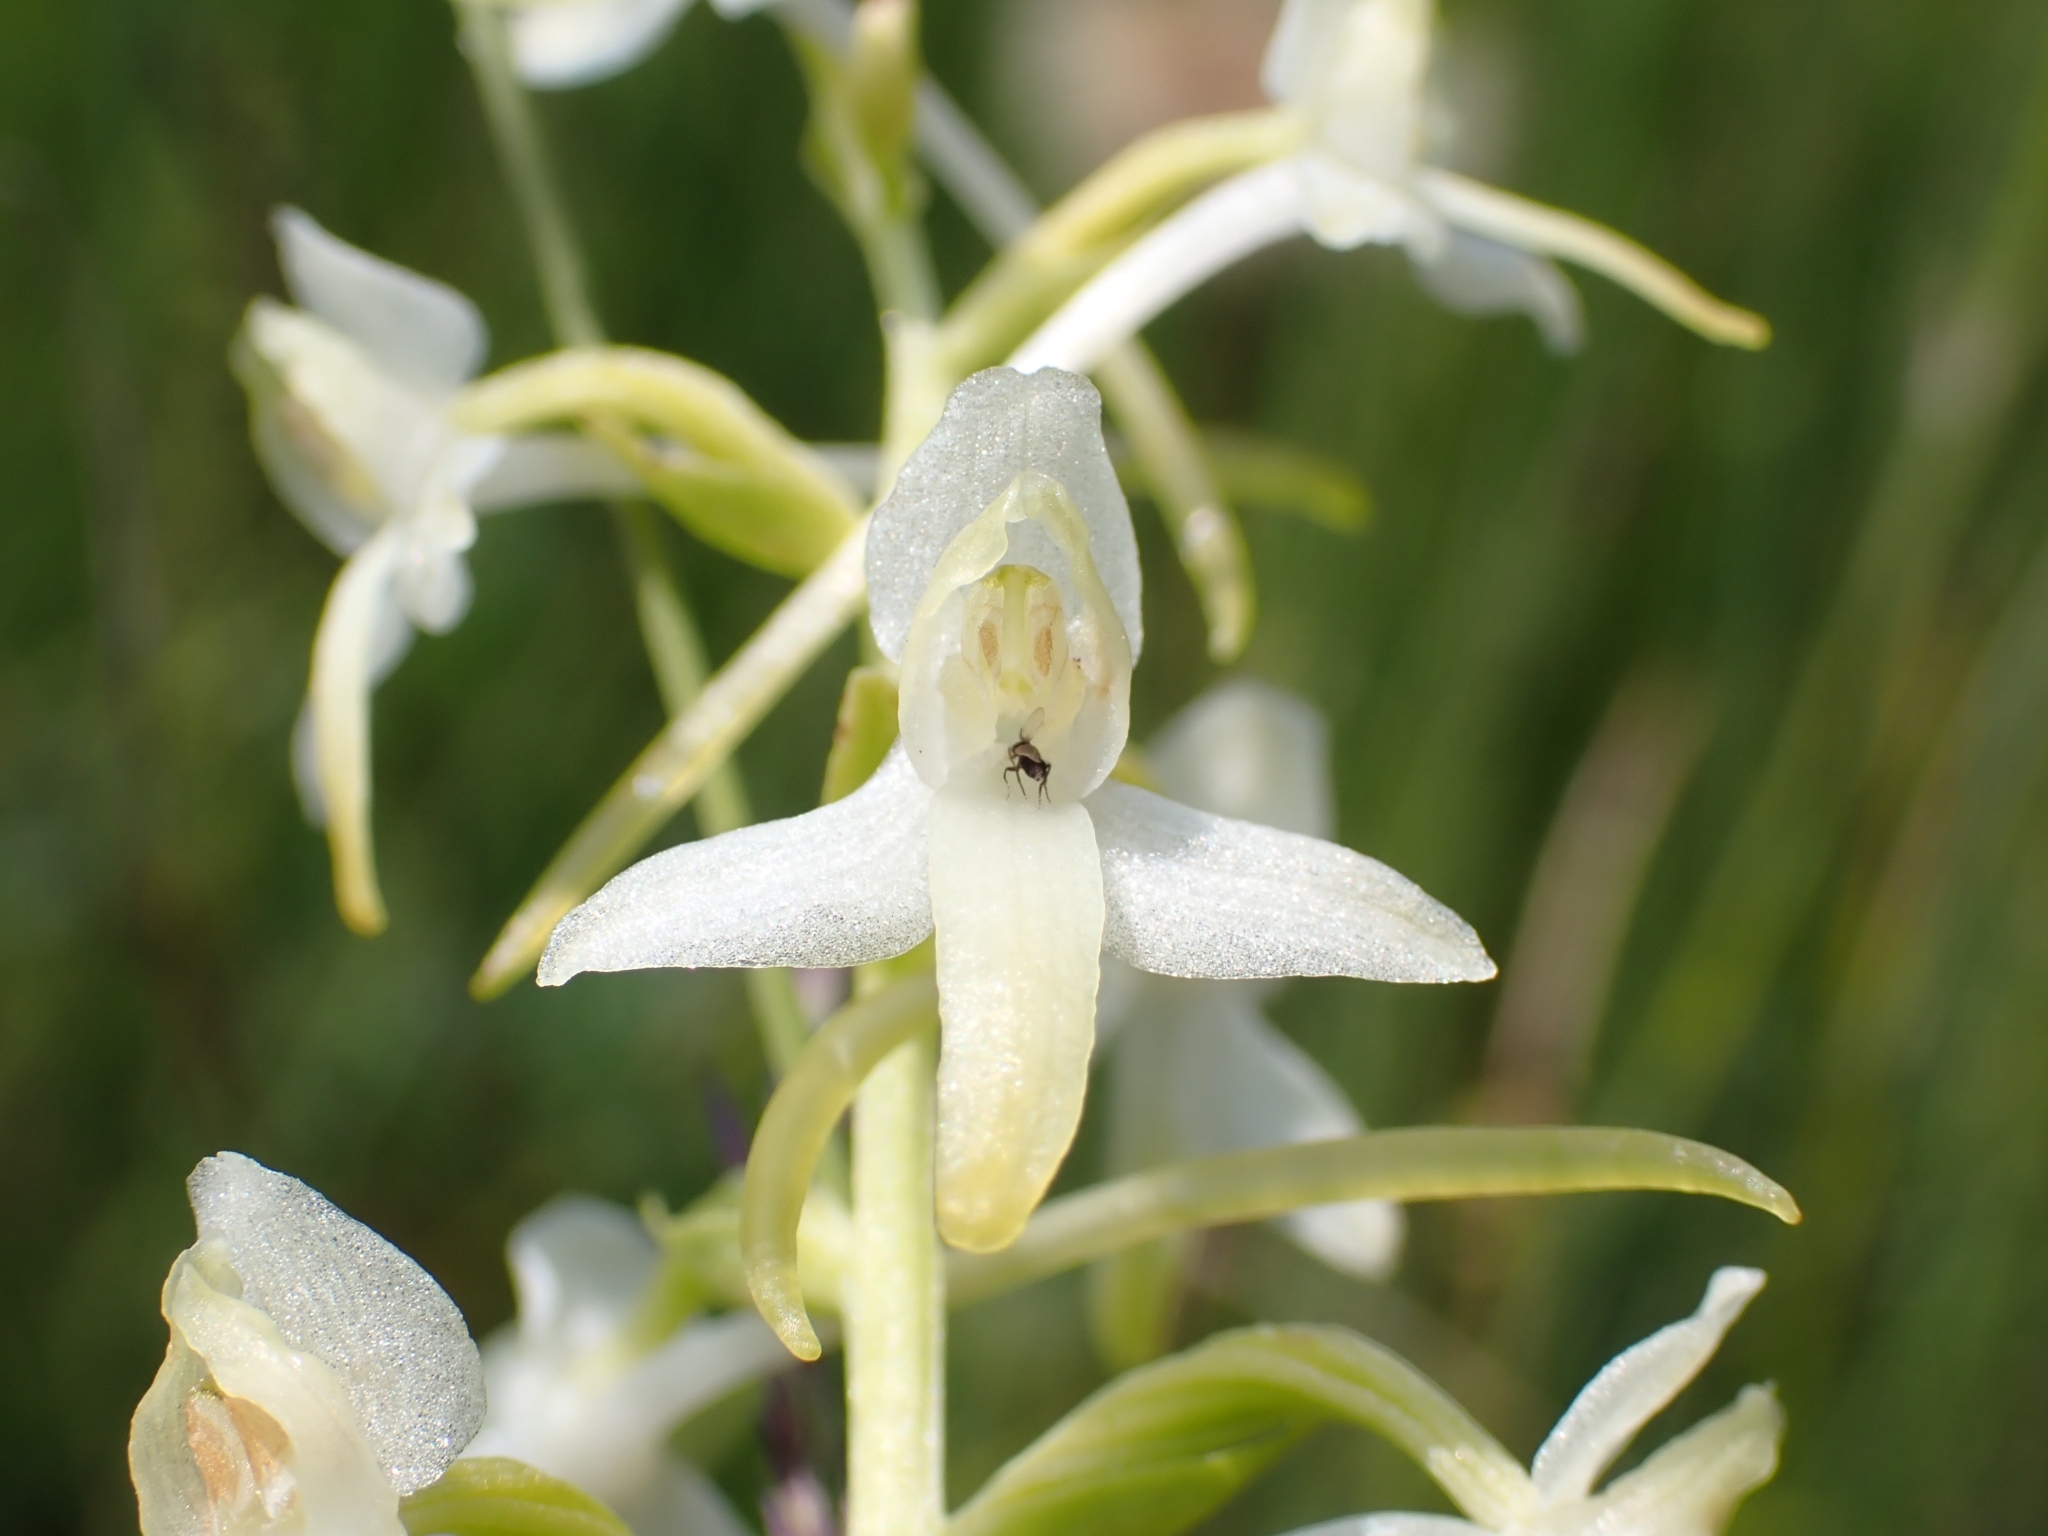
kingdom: Plantae
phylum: Tracheophyta
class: Liliopsida
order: Asparagales
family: Orchidaceae
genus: Platanthera
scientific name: Platanthera bifolia
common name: Lesser butterfly-orchid
